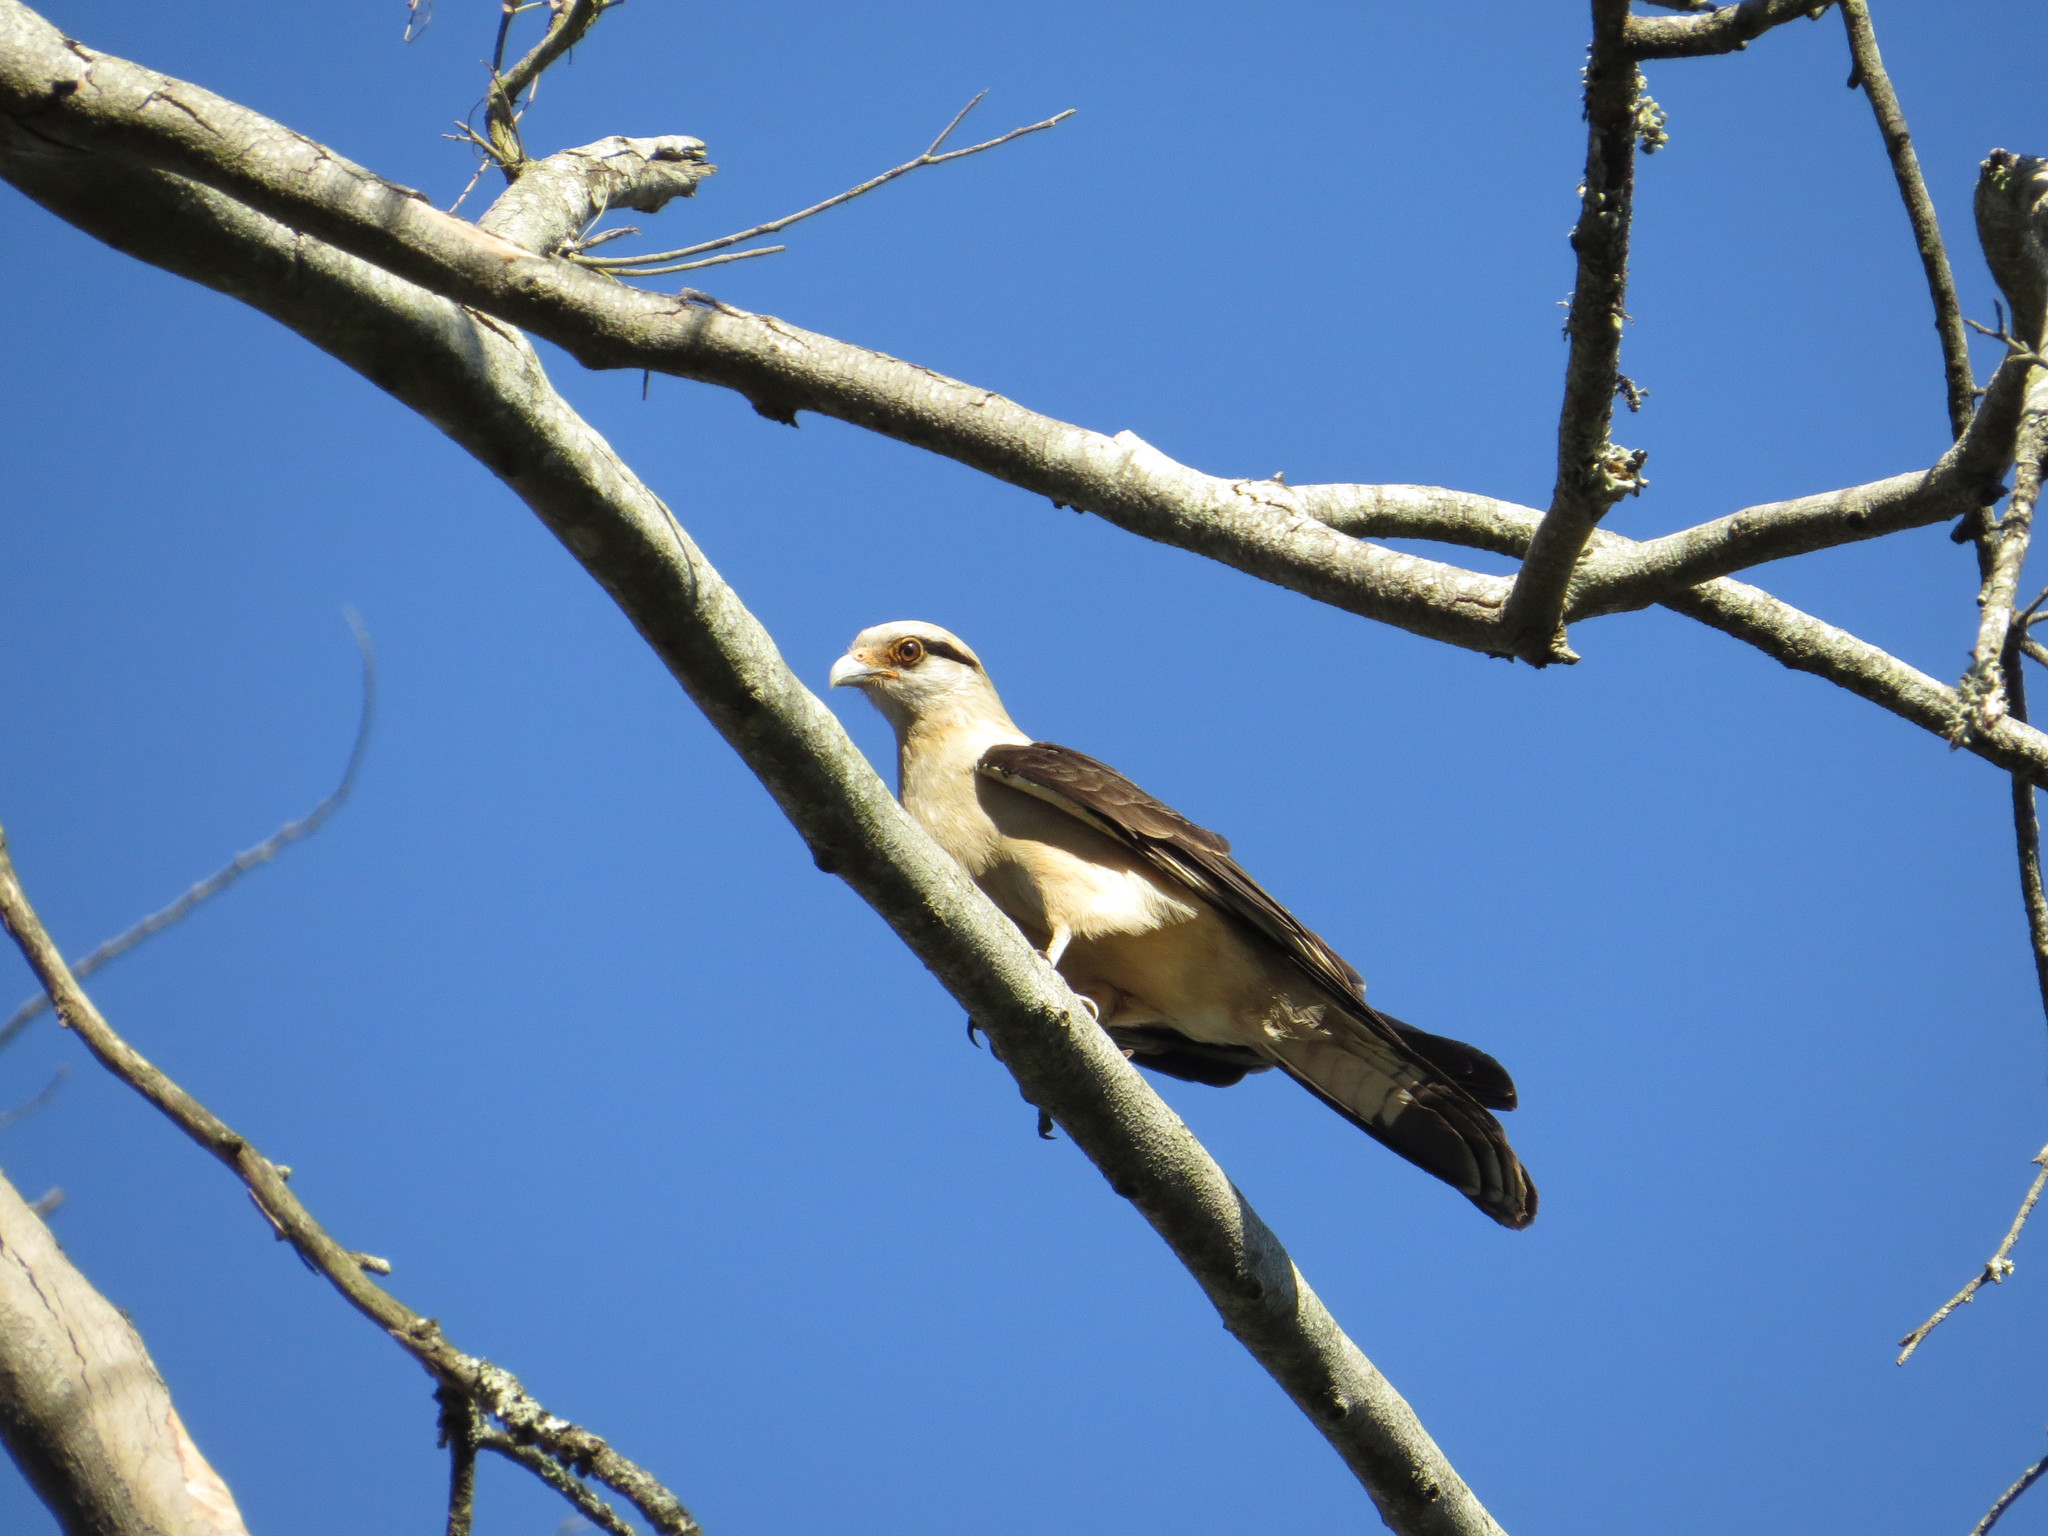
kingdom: Animalia
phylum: Chordata
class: Aves
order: Falconiformes
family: Falconidae
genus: Daptrius
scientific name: Daptrius
